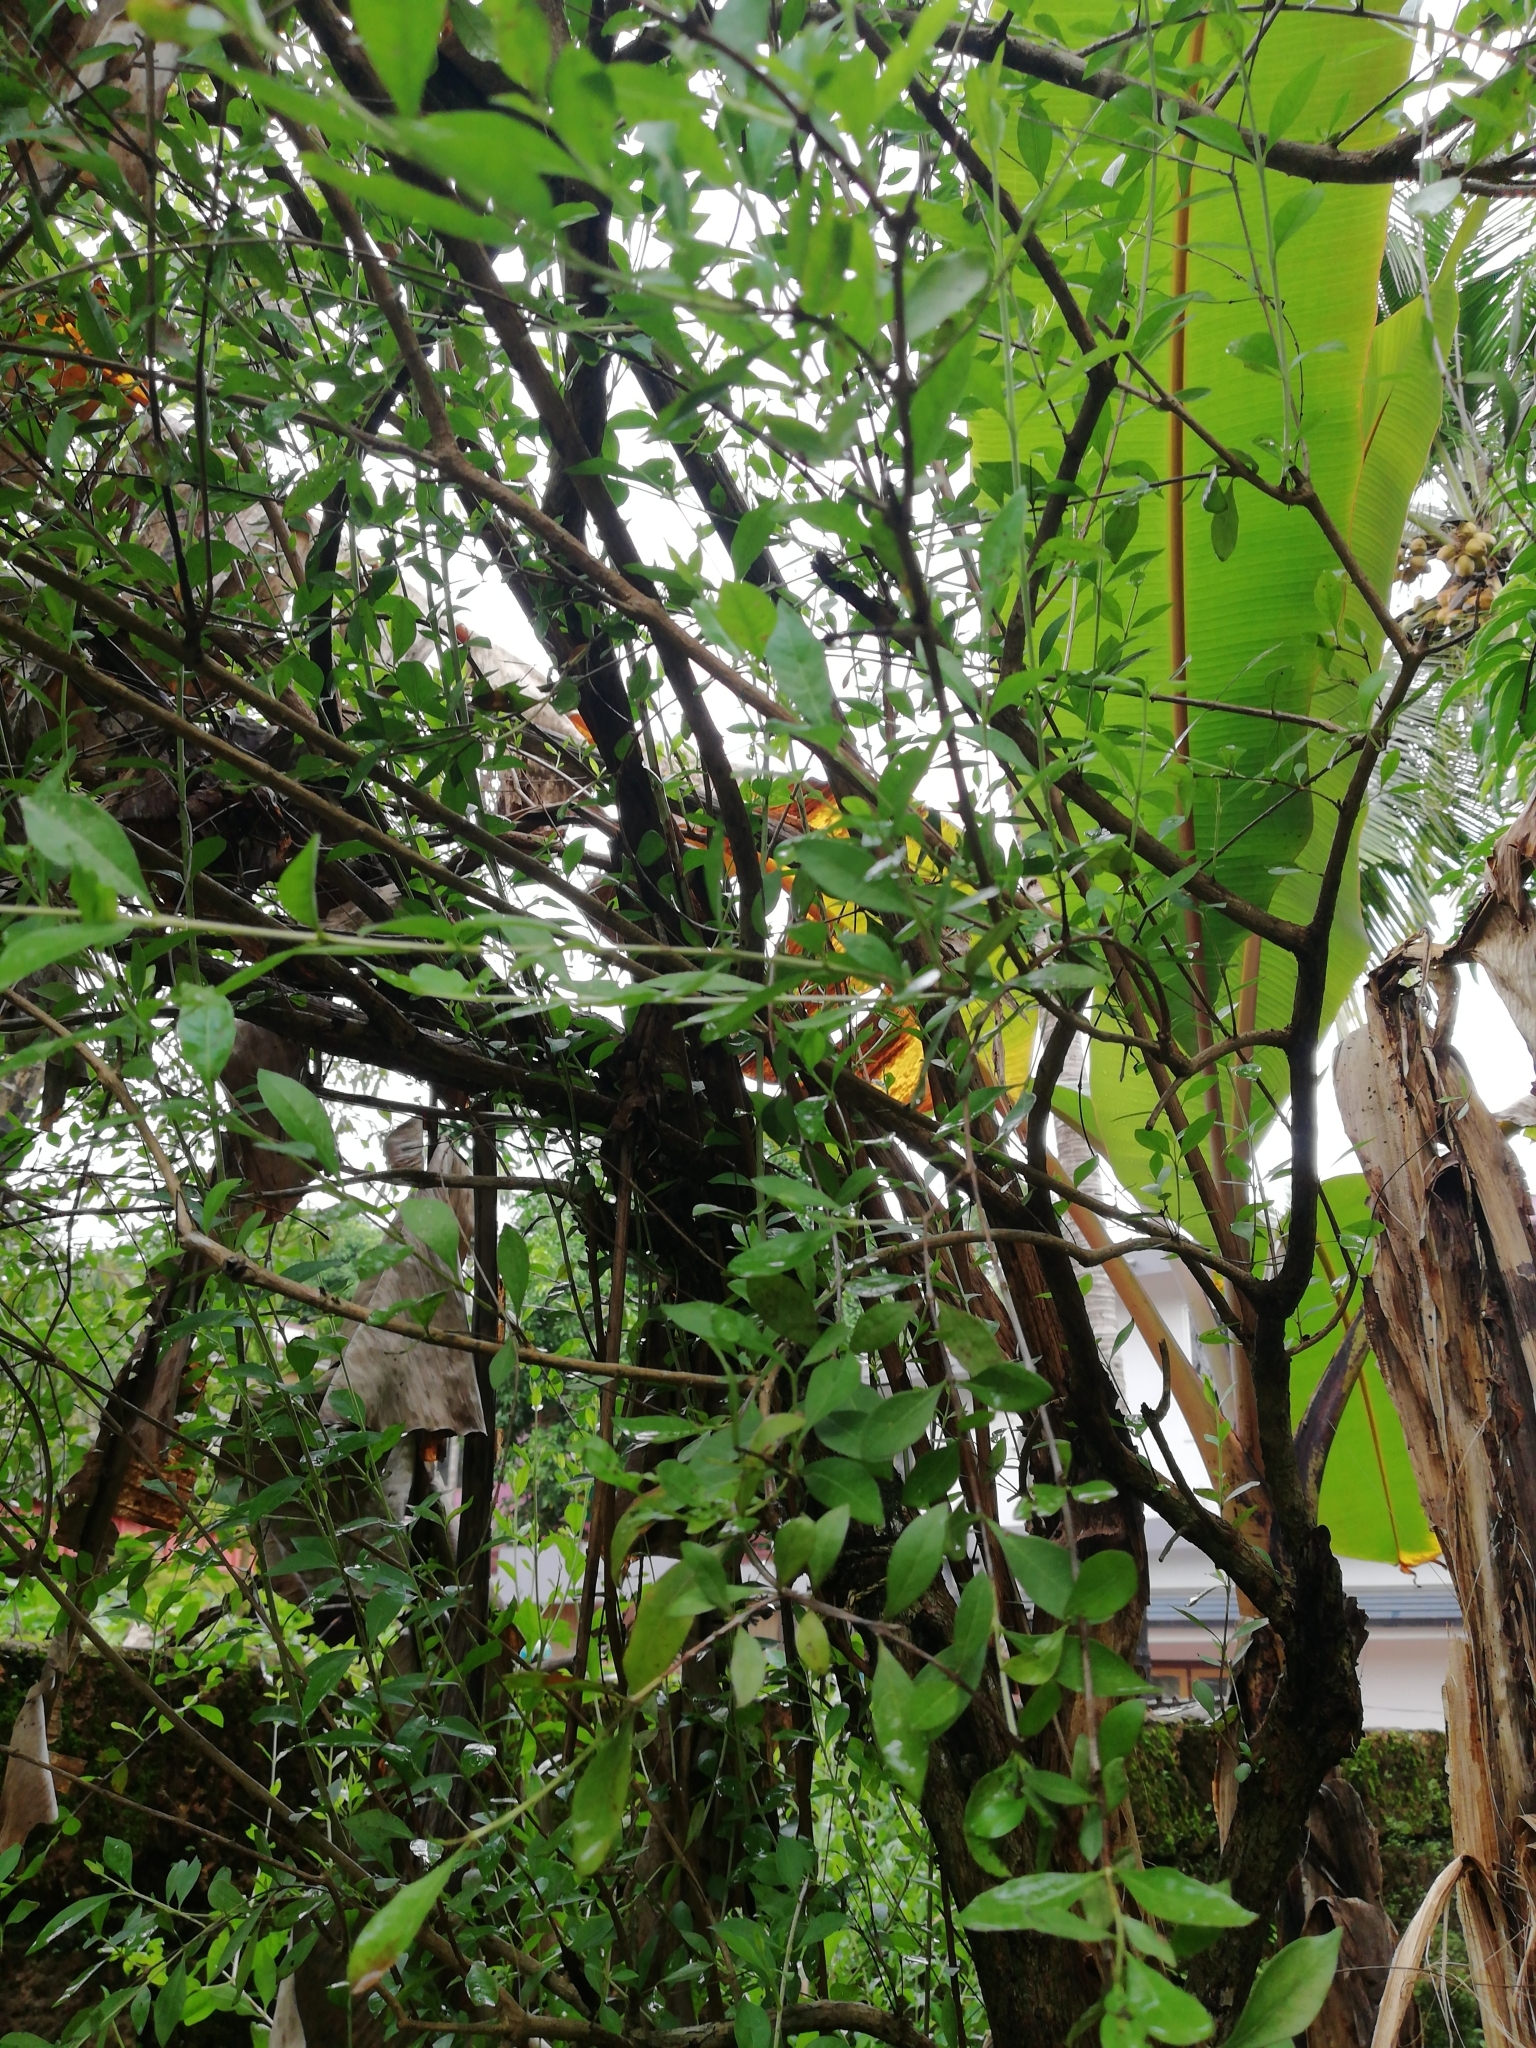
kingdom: Plantae
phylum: Tracheophyta
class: Magnoliopsida
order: Myrtales
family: Lythraceae
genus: Lawsonia
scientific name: Lawsonia inermis
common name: Henna
